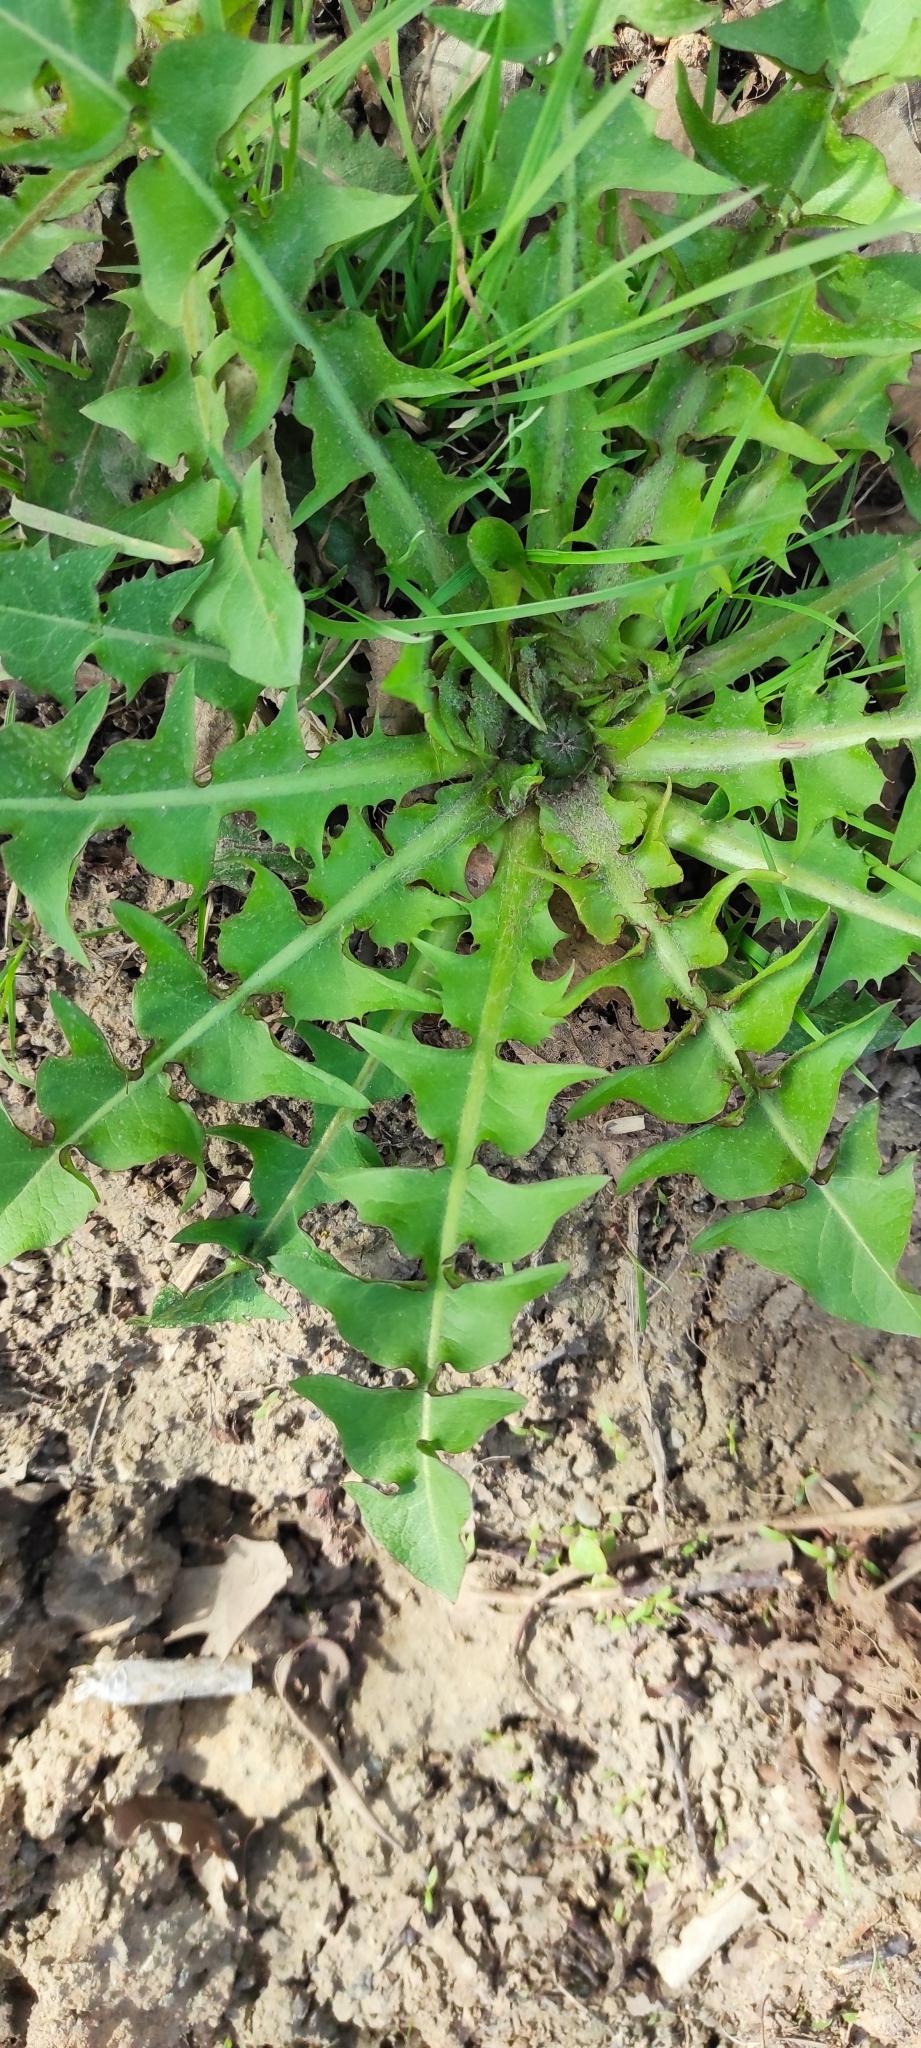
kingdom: Plantae
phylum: Tracheophyta
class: Magnoliopsida
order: Asterales
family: Asteraceae
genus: Taraxacum
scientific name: Taraxacum officinale
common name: Common dandelion
